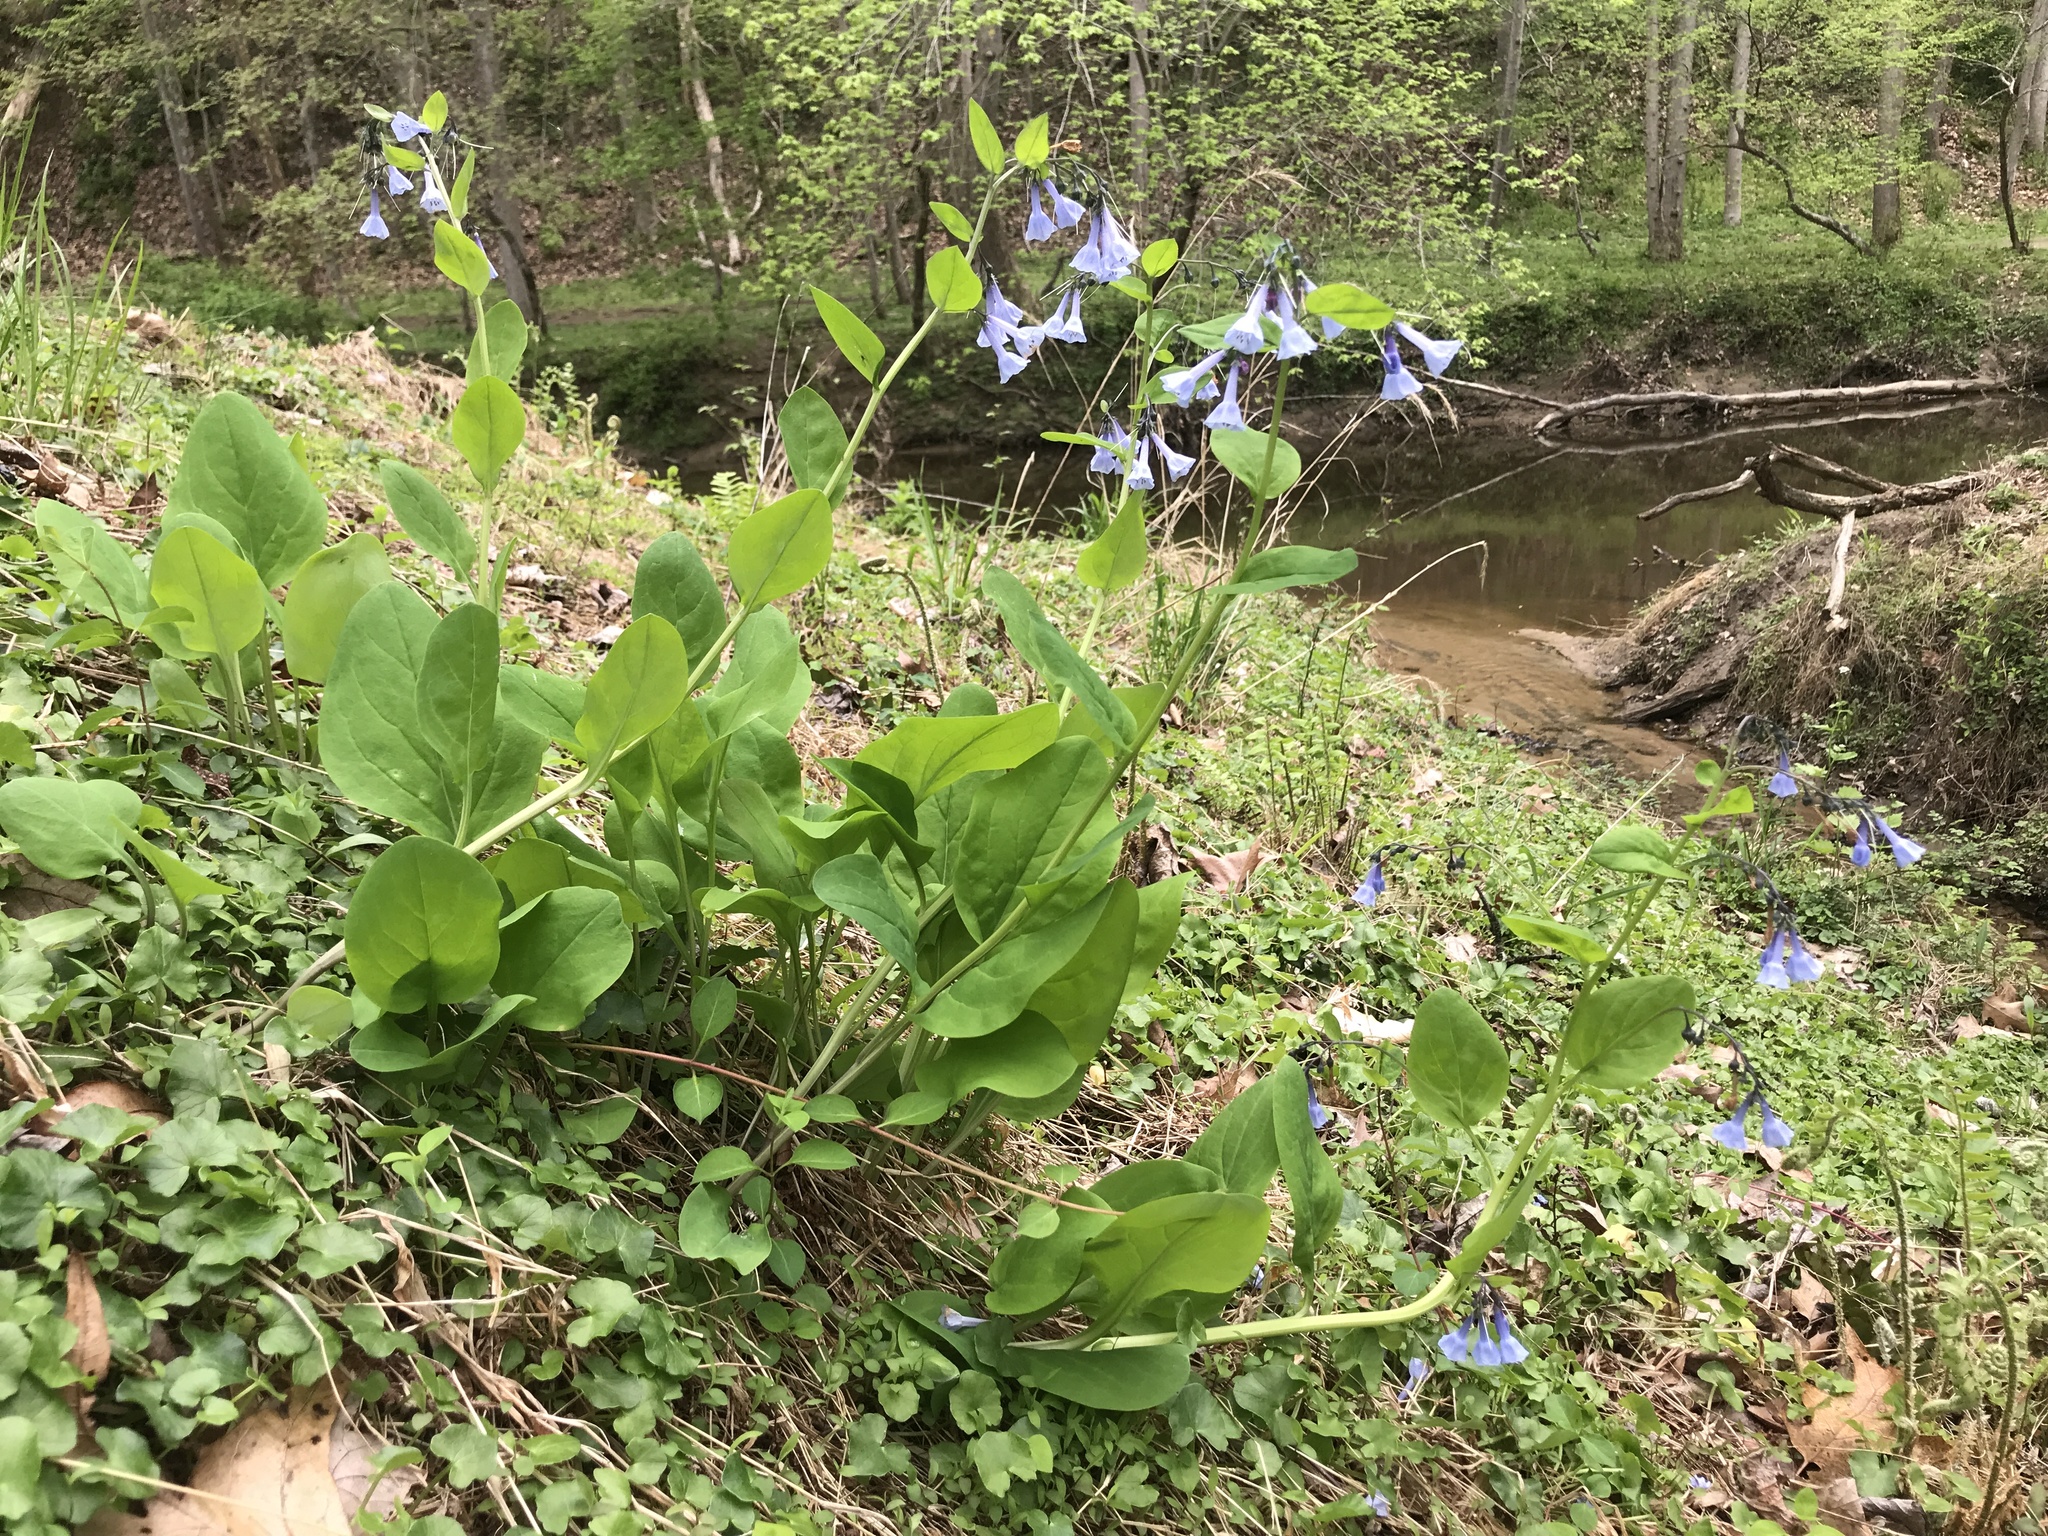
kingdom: Plantae
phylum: Tracheophyta
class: Magnoliopsida
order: Boraginales
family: Boraginaceae
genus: Mertensia
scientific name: Mertensia virginica
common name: Virginia bluebells
